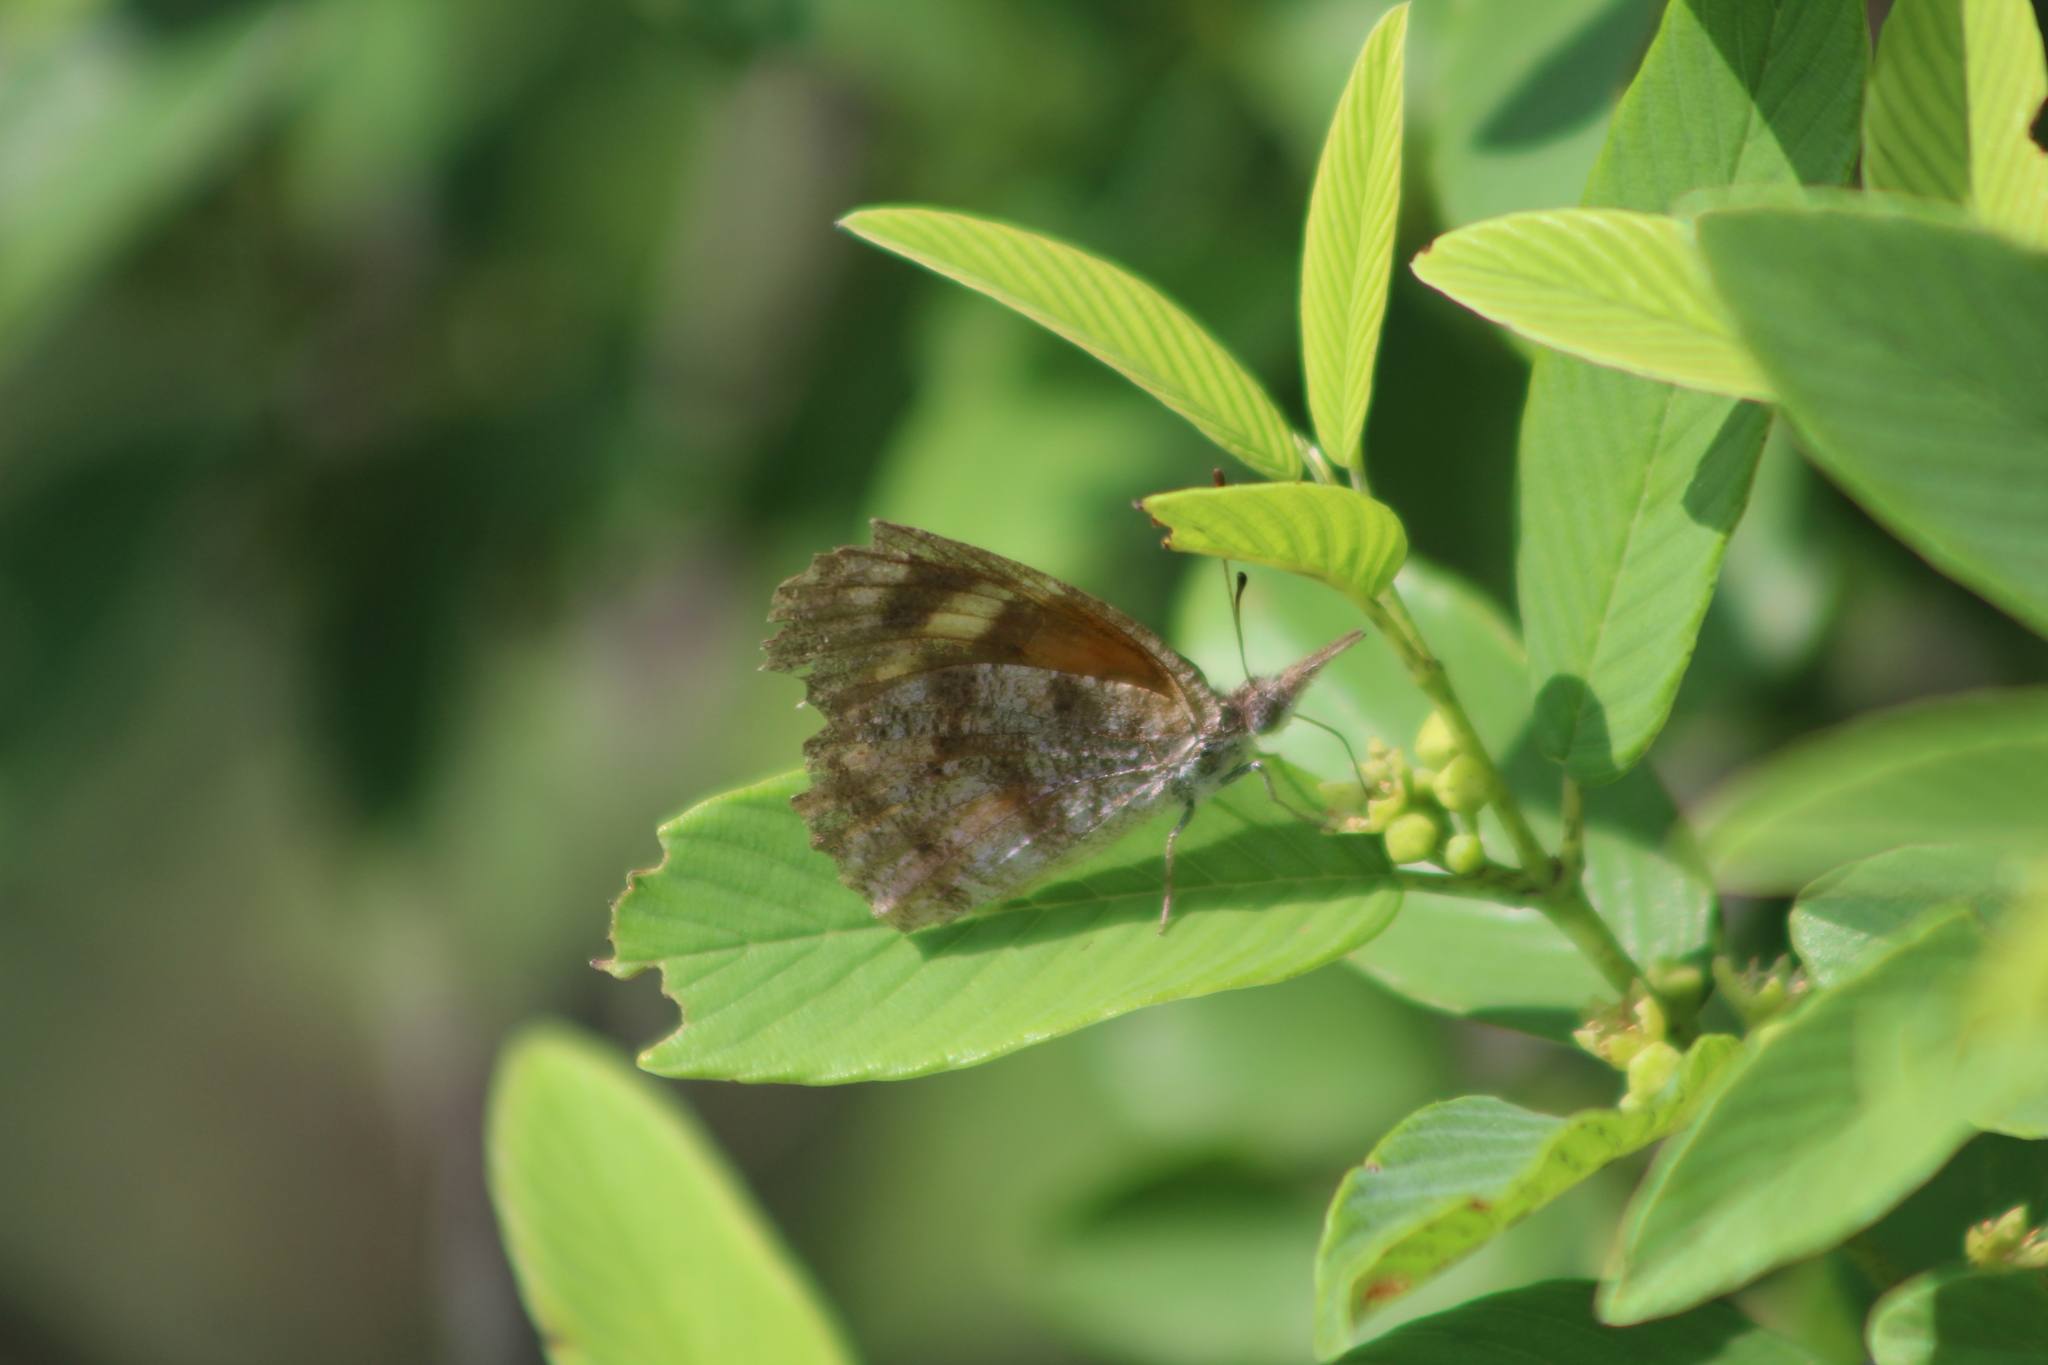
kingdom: Animalia
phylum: Arthropoda
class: Insecta
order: Lepidoptera
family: Nymphalidae
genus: Libytheana
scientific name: Libytheana carinenta
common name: American snout
